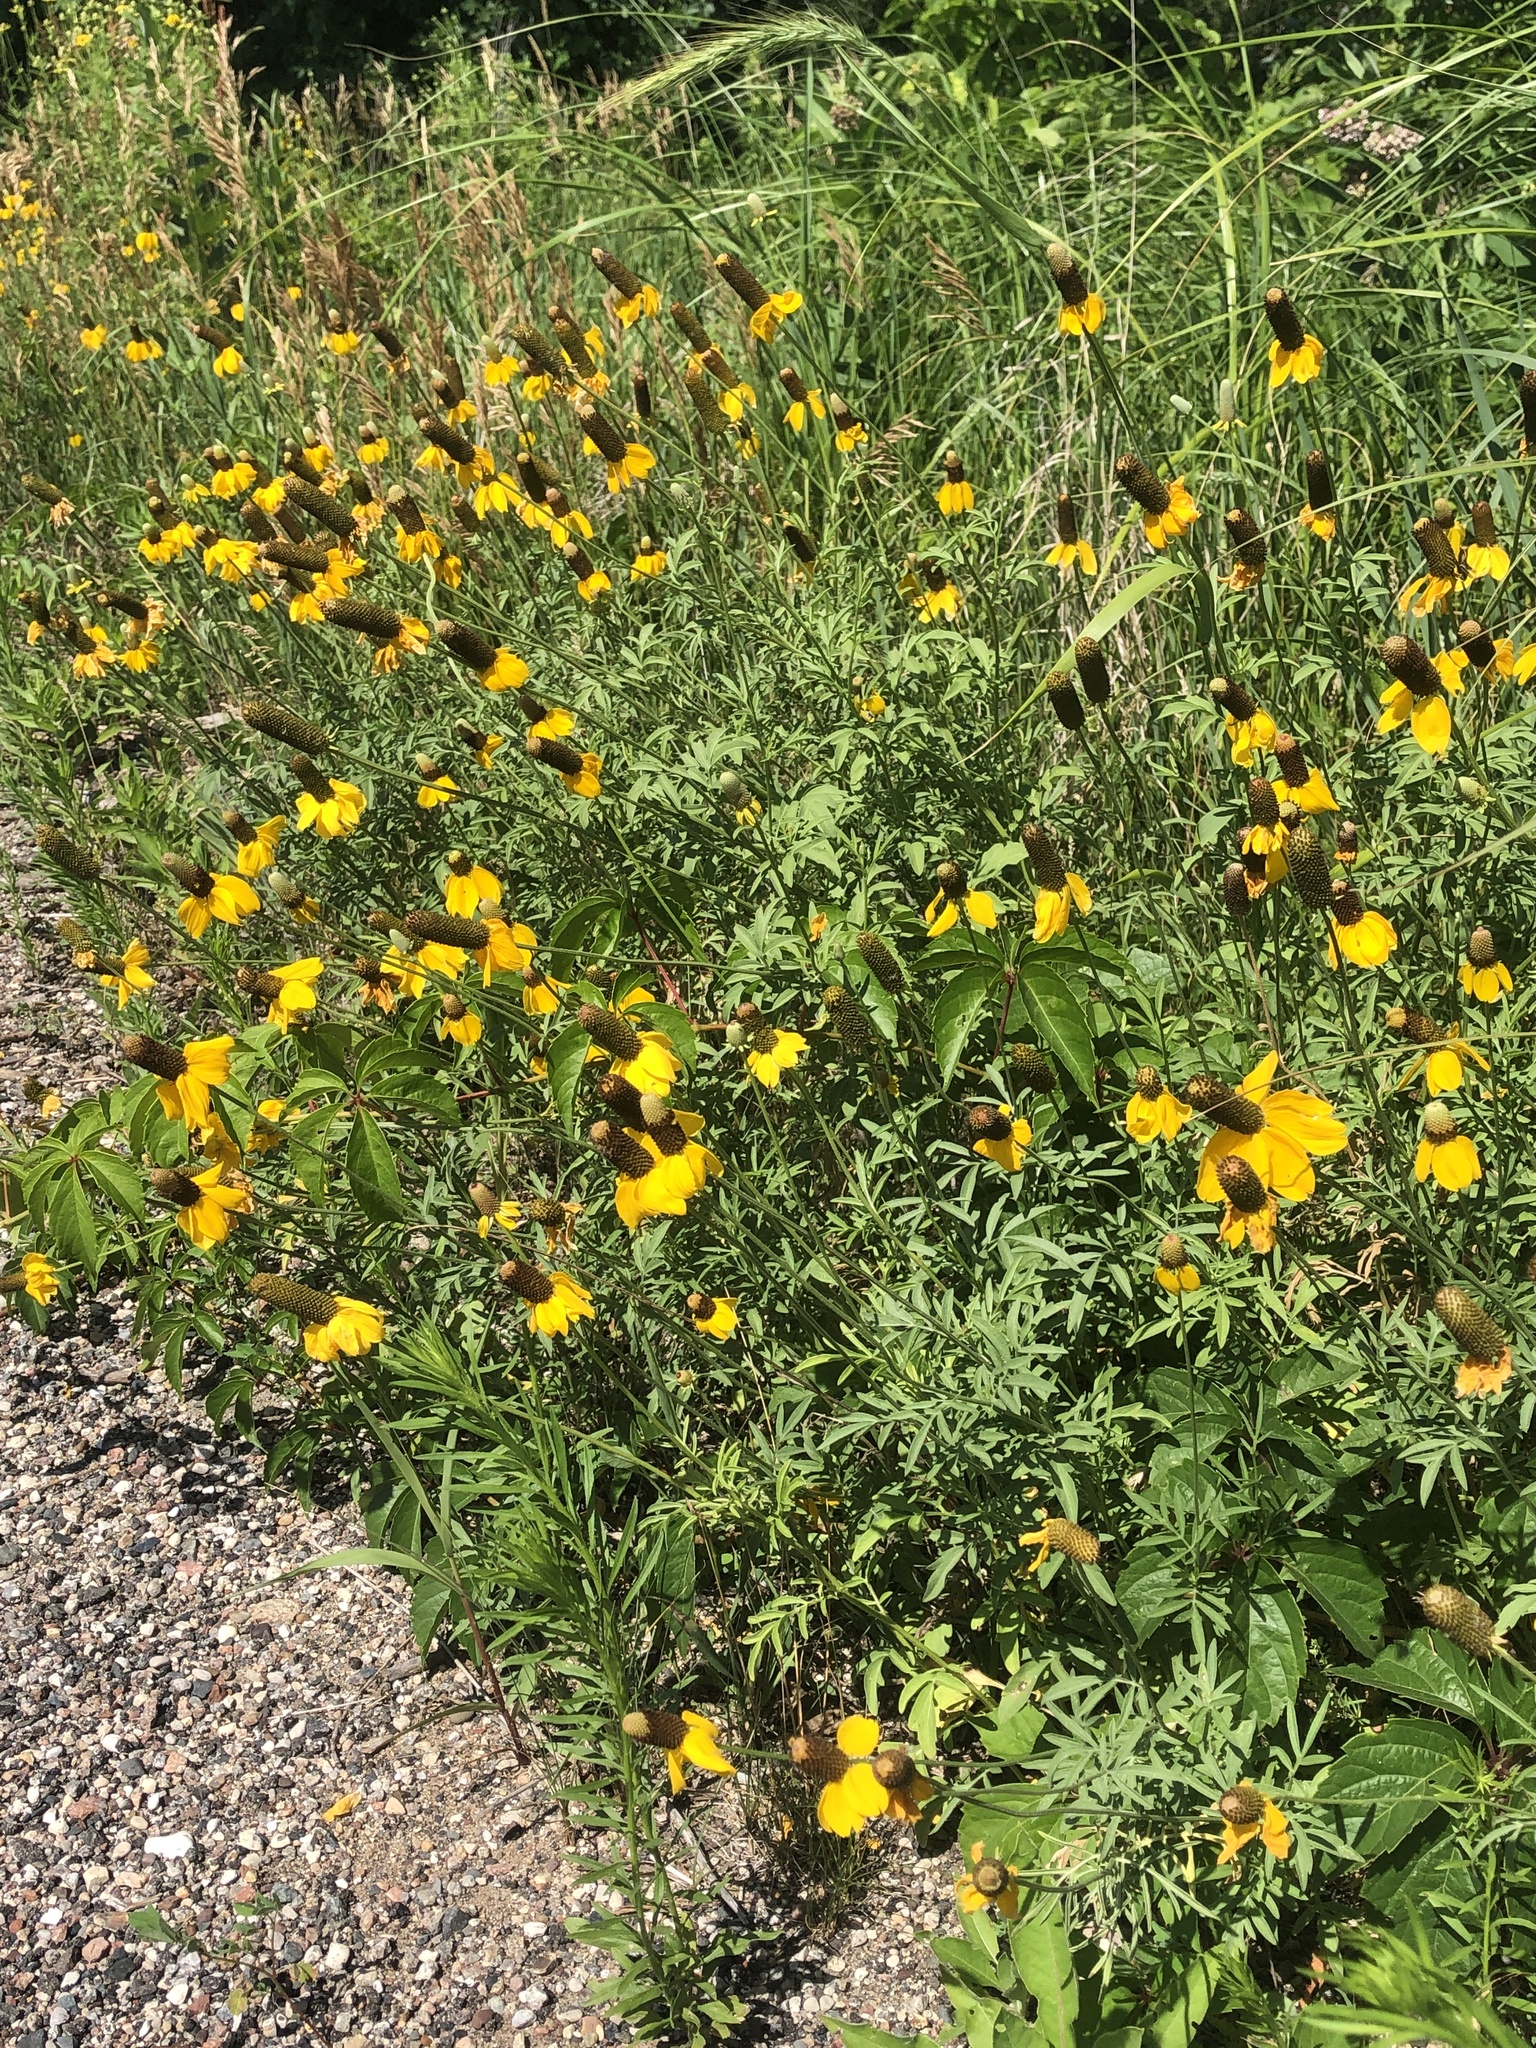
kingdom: Plantae
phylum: Tracheophyta
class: Magnoliopsida
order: Asterales
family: Asteraceae
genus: Ratibida
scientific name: Ratibida columnifera
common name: Prairie coneflower
